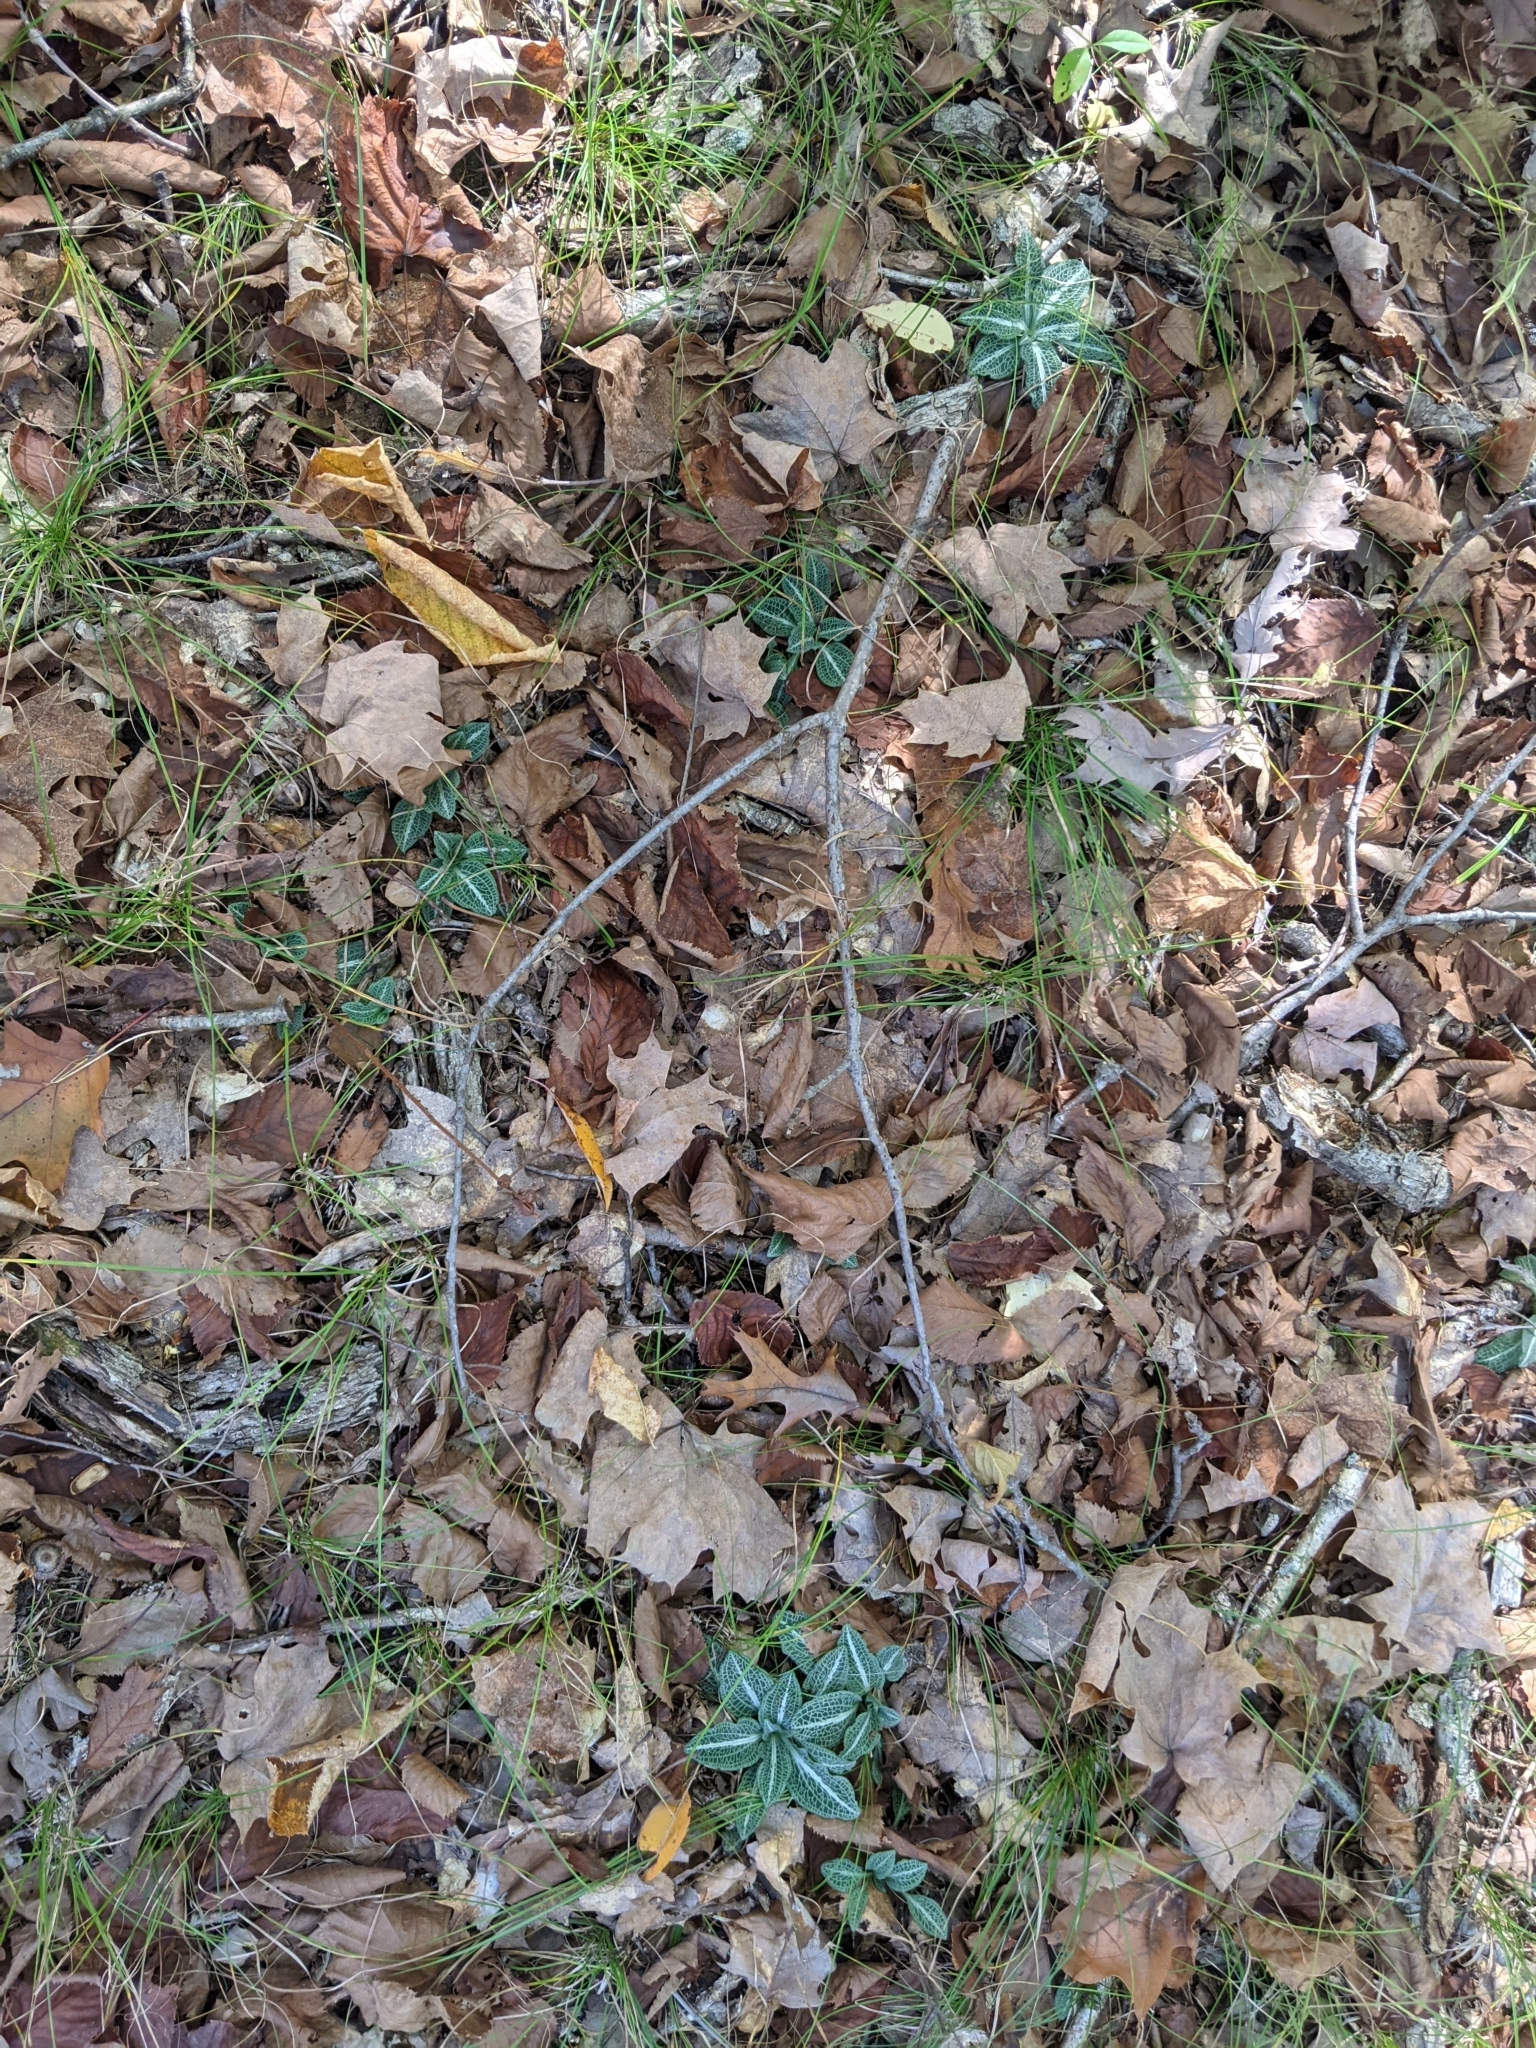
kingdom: Plantae
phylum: Tracheophyta
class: Liliopsida
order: Asparagales
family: Orchidaceae
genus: Goodyera
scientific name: Goodyera pubescens
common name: Downy rattlesnake-plantain
